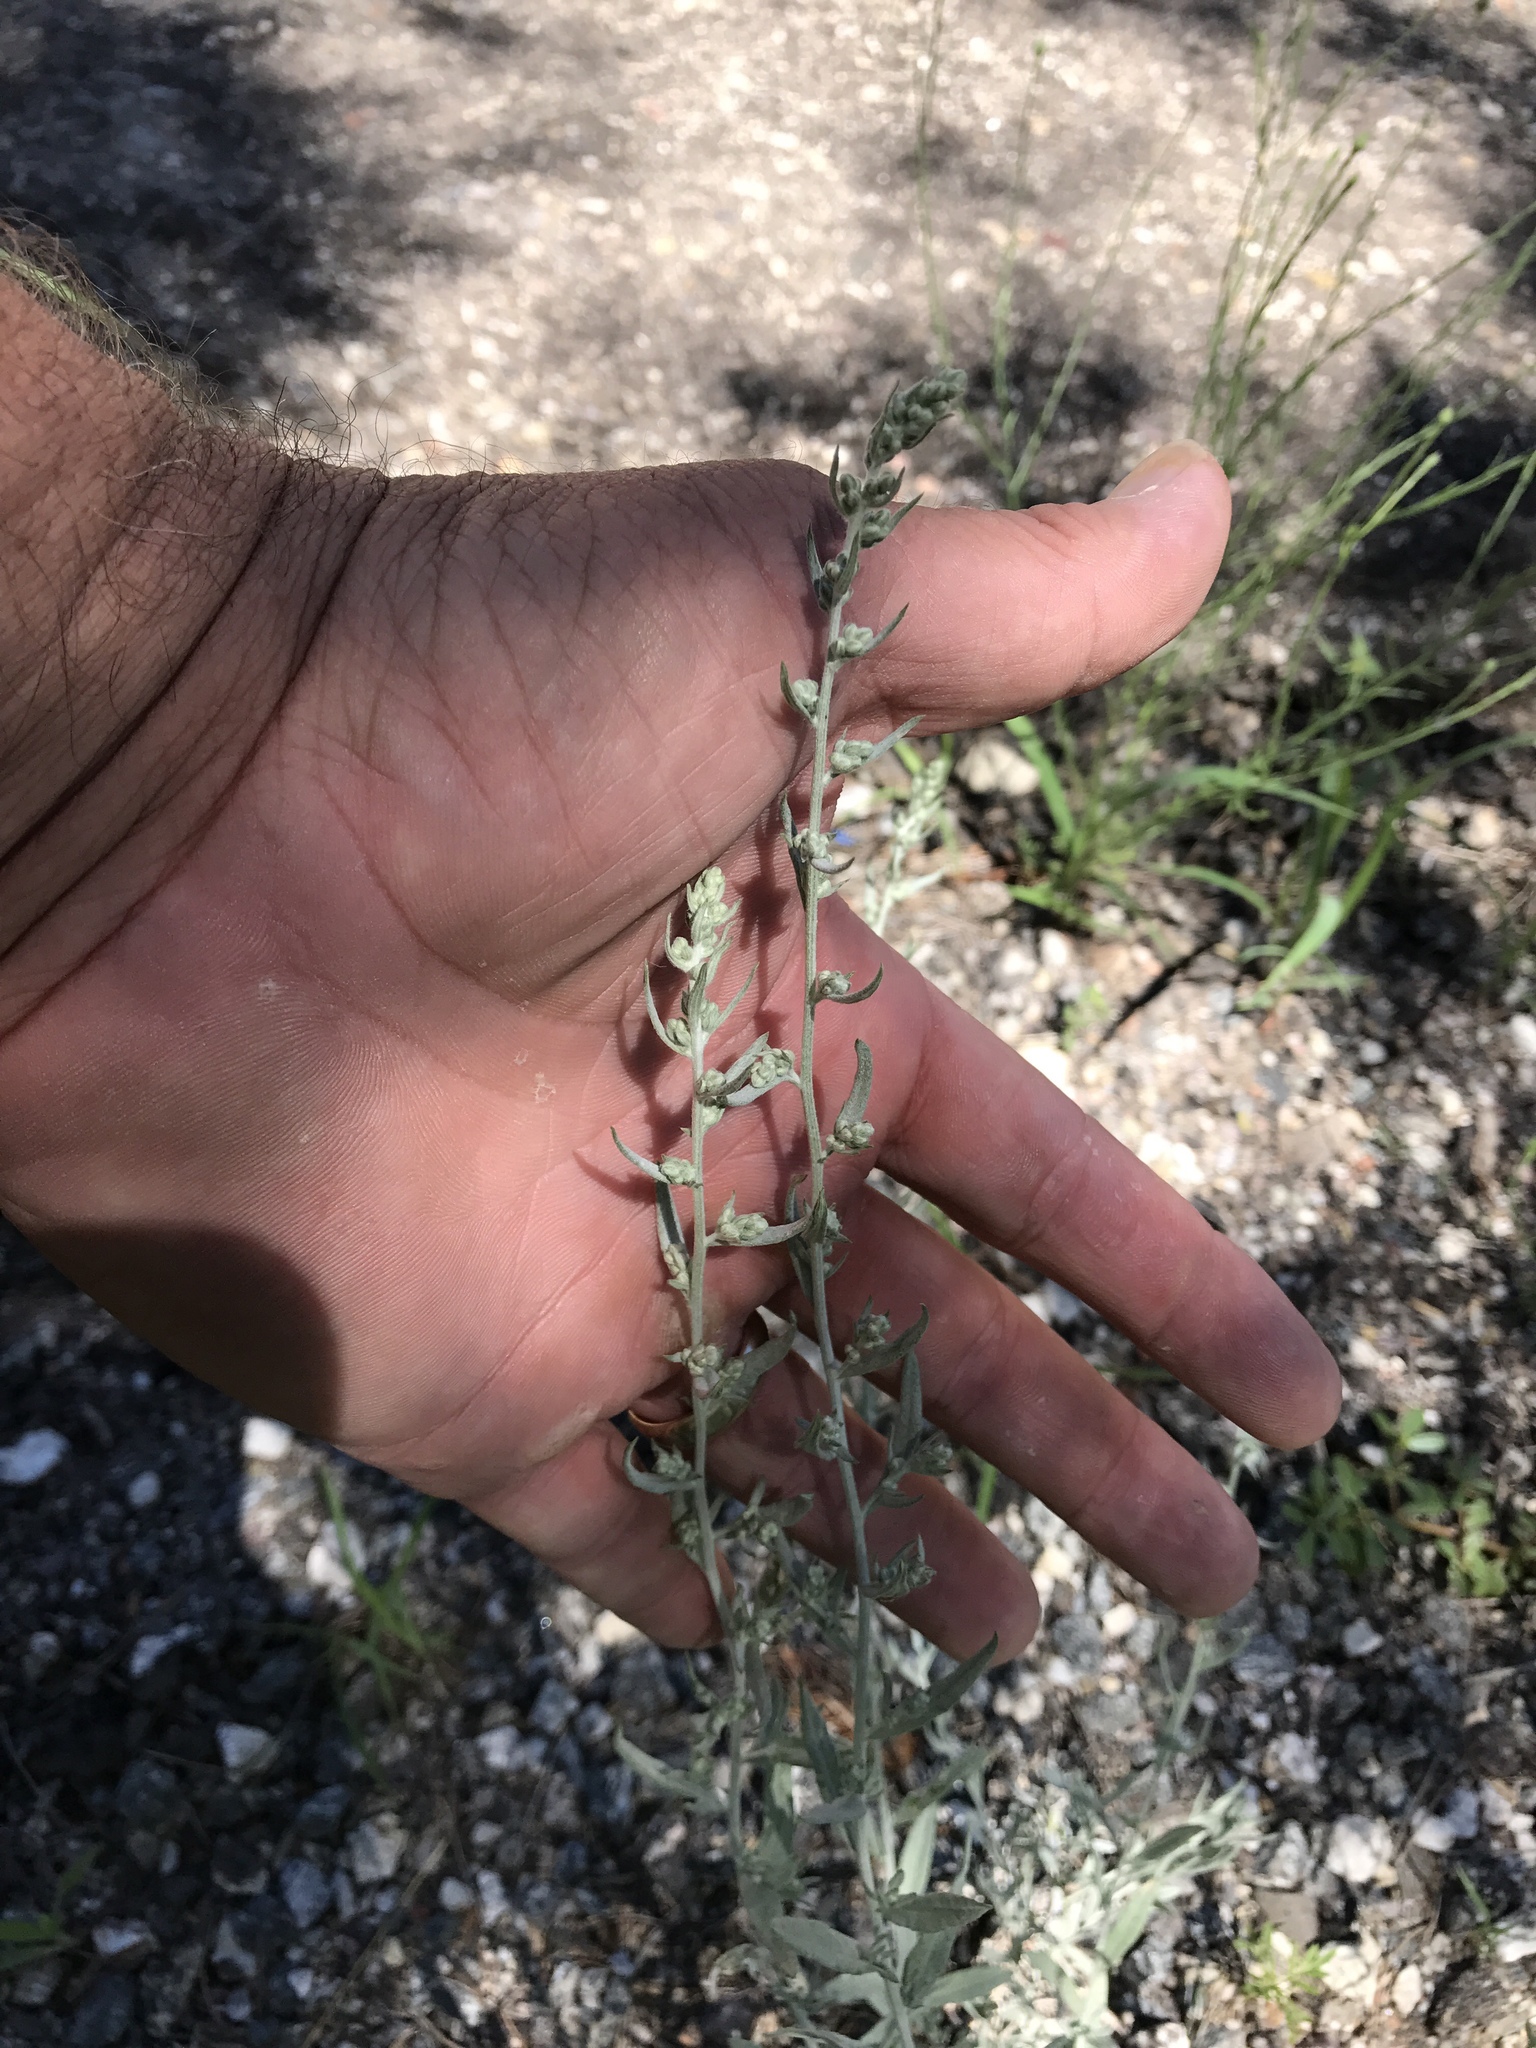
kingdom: Plantae
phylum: Tracheophyta
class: Magnoliopsida
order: Asterales
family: Asteraceae
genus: Artemisia
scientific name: Artemisia ludoviciana
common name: Western mugwort
